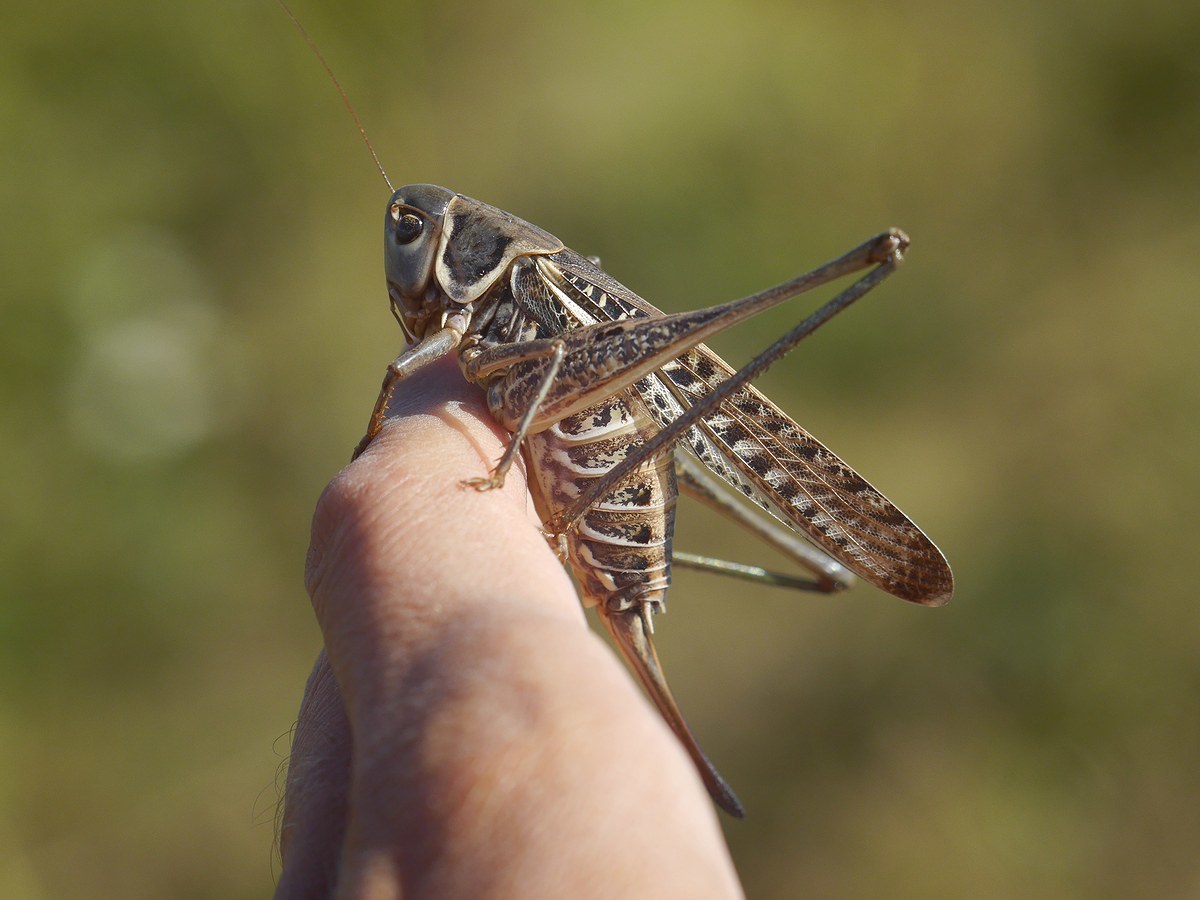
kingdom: Animalia
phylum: Arthropoda
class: Insecta
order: Orthoptera
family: Tettigoniidae
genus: Decticus
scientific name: Decticus albifrons
